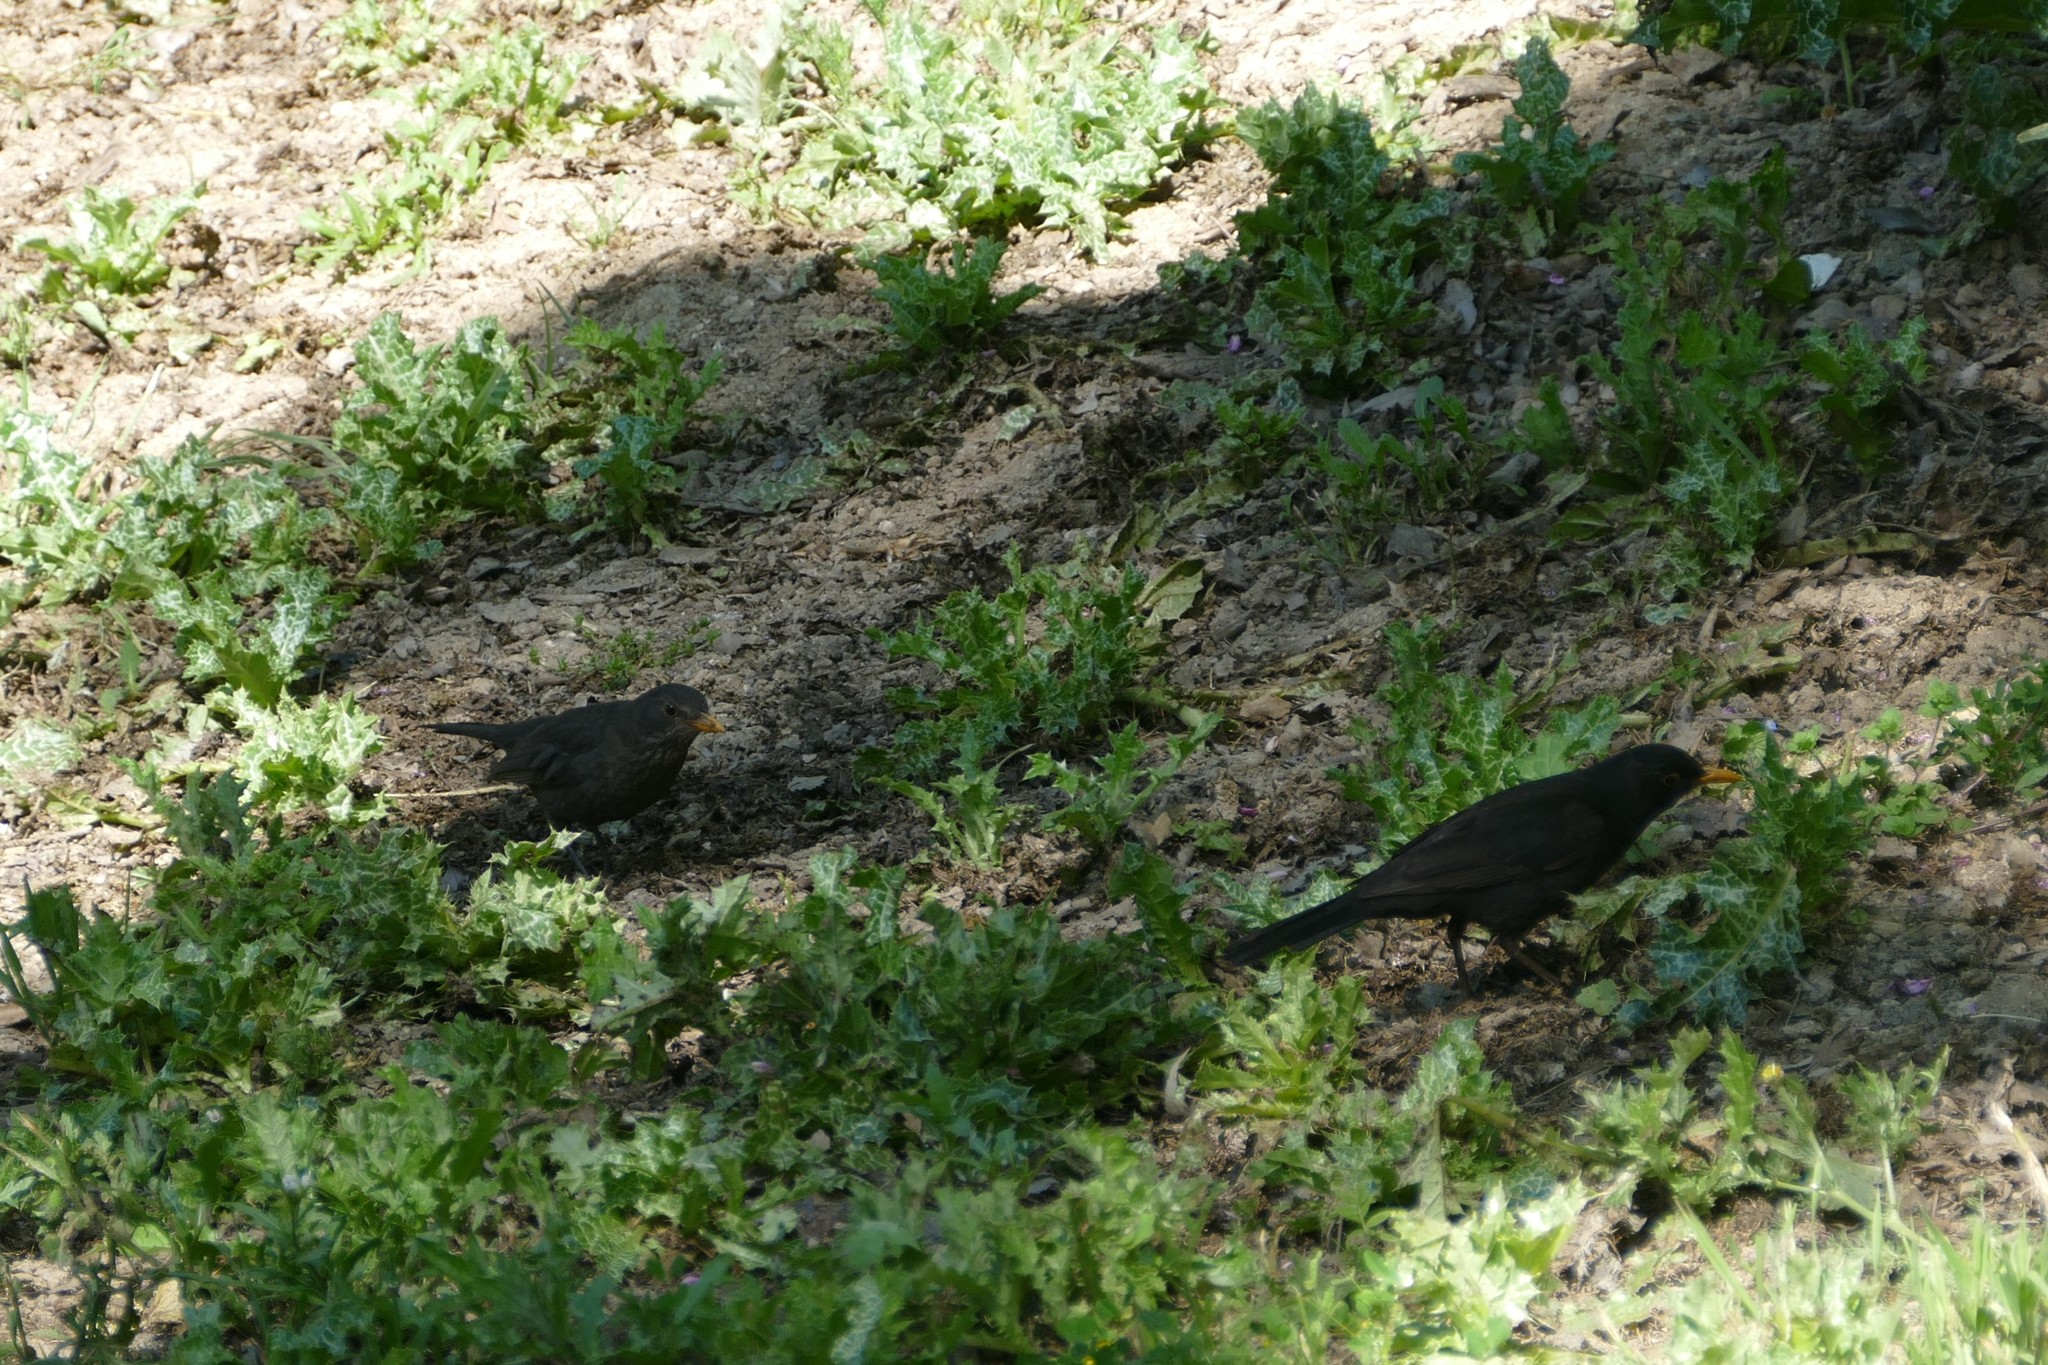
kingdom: Animalia
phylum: Chordata
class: Aves
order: Passeriformes
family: Turdidae
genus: Turdus
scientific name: Turdus merula
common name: Common blackbird
